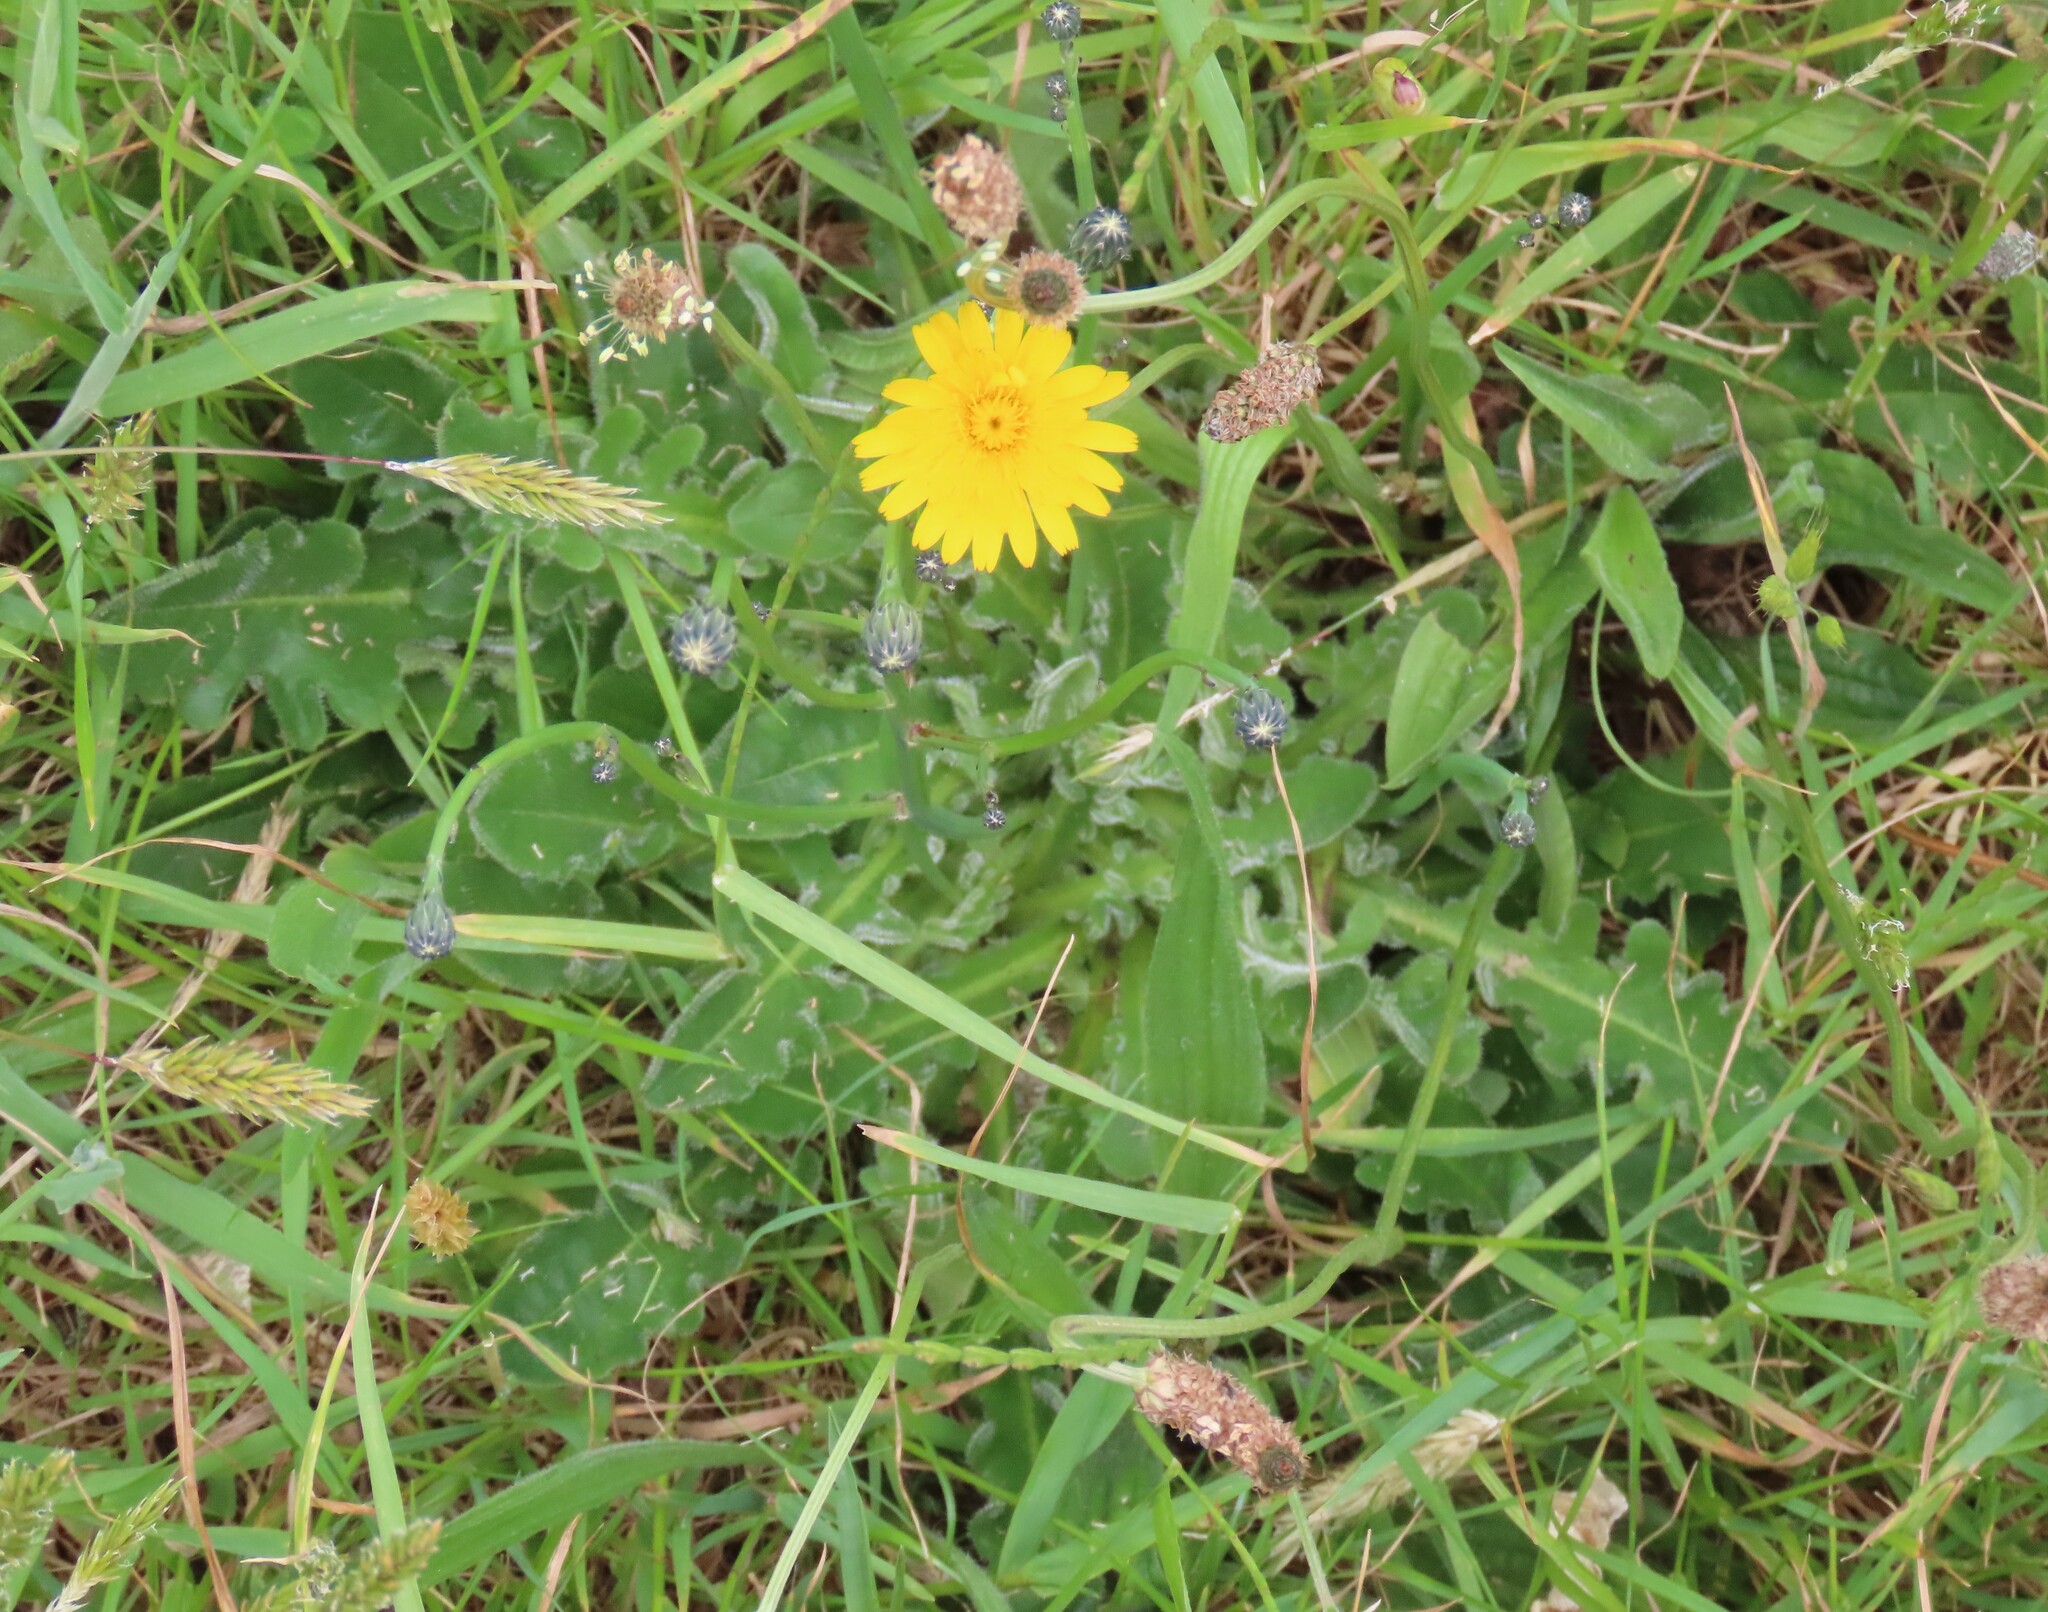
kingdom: Plantae
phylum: Tracheophyta
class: Magnoliopsida
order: Asterales
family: Asteraceae
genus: Hypochaeris
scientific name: Hypochaeris radicata
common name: Flatweed
